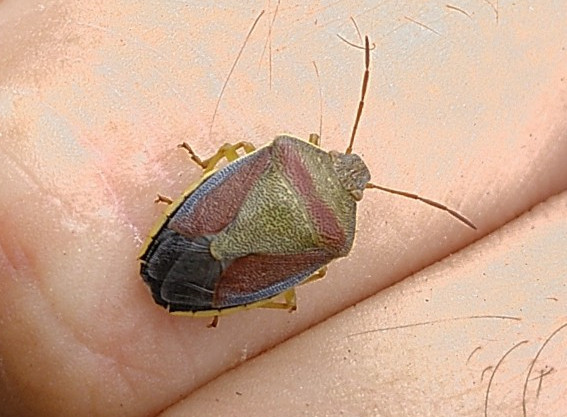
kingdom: Animalia
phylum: Arthropoda
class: Insecta
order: Hemiptera
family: Pentatomidae
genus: Piezodorus
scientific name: Piezodorus lituratus
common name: Stink bug
